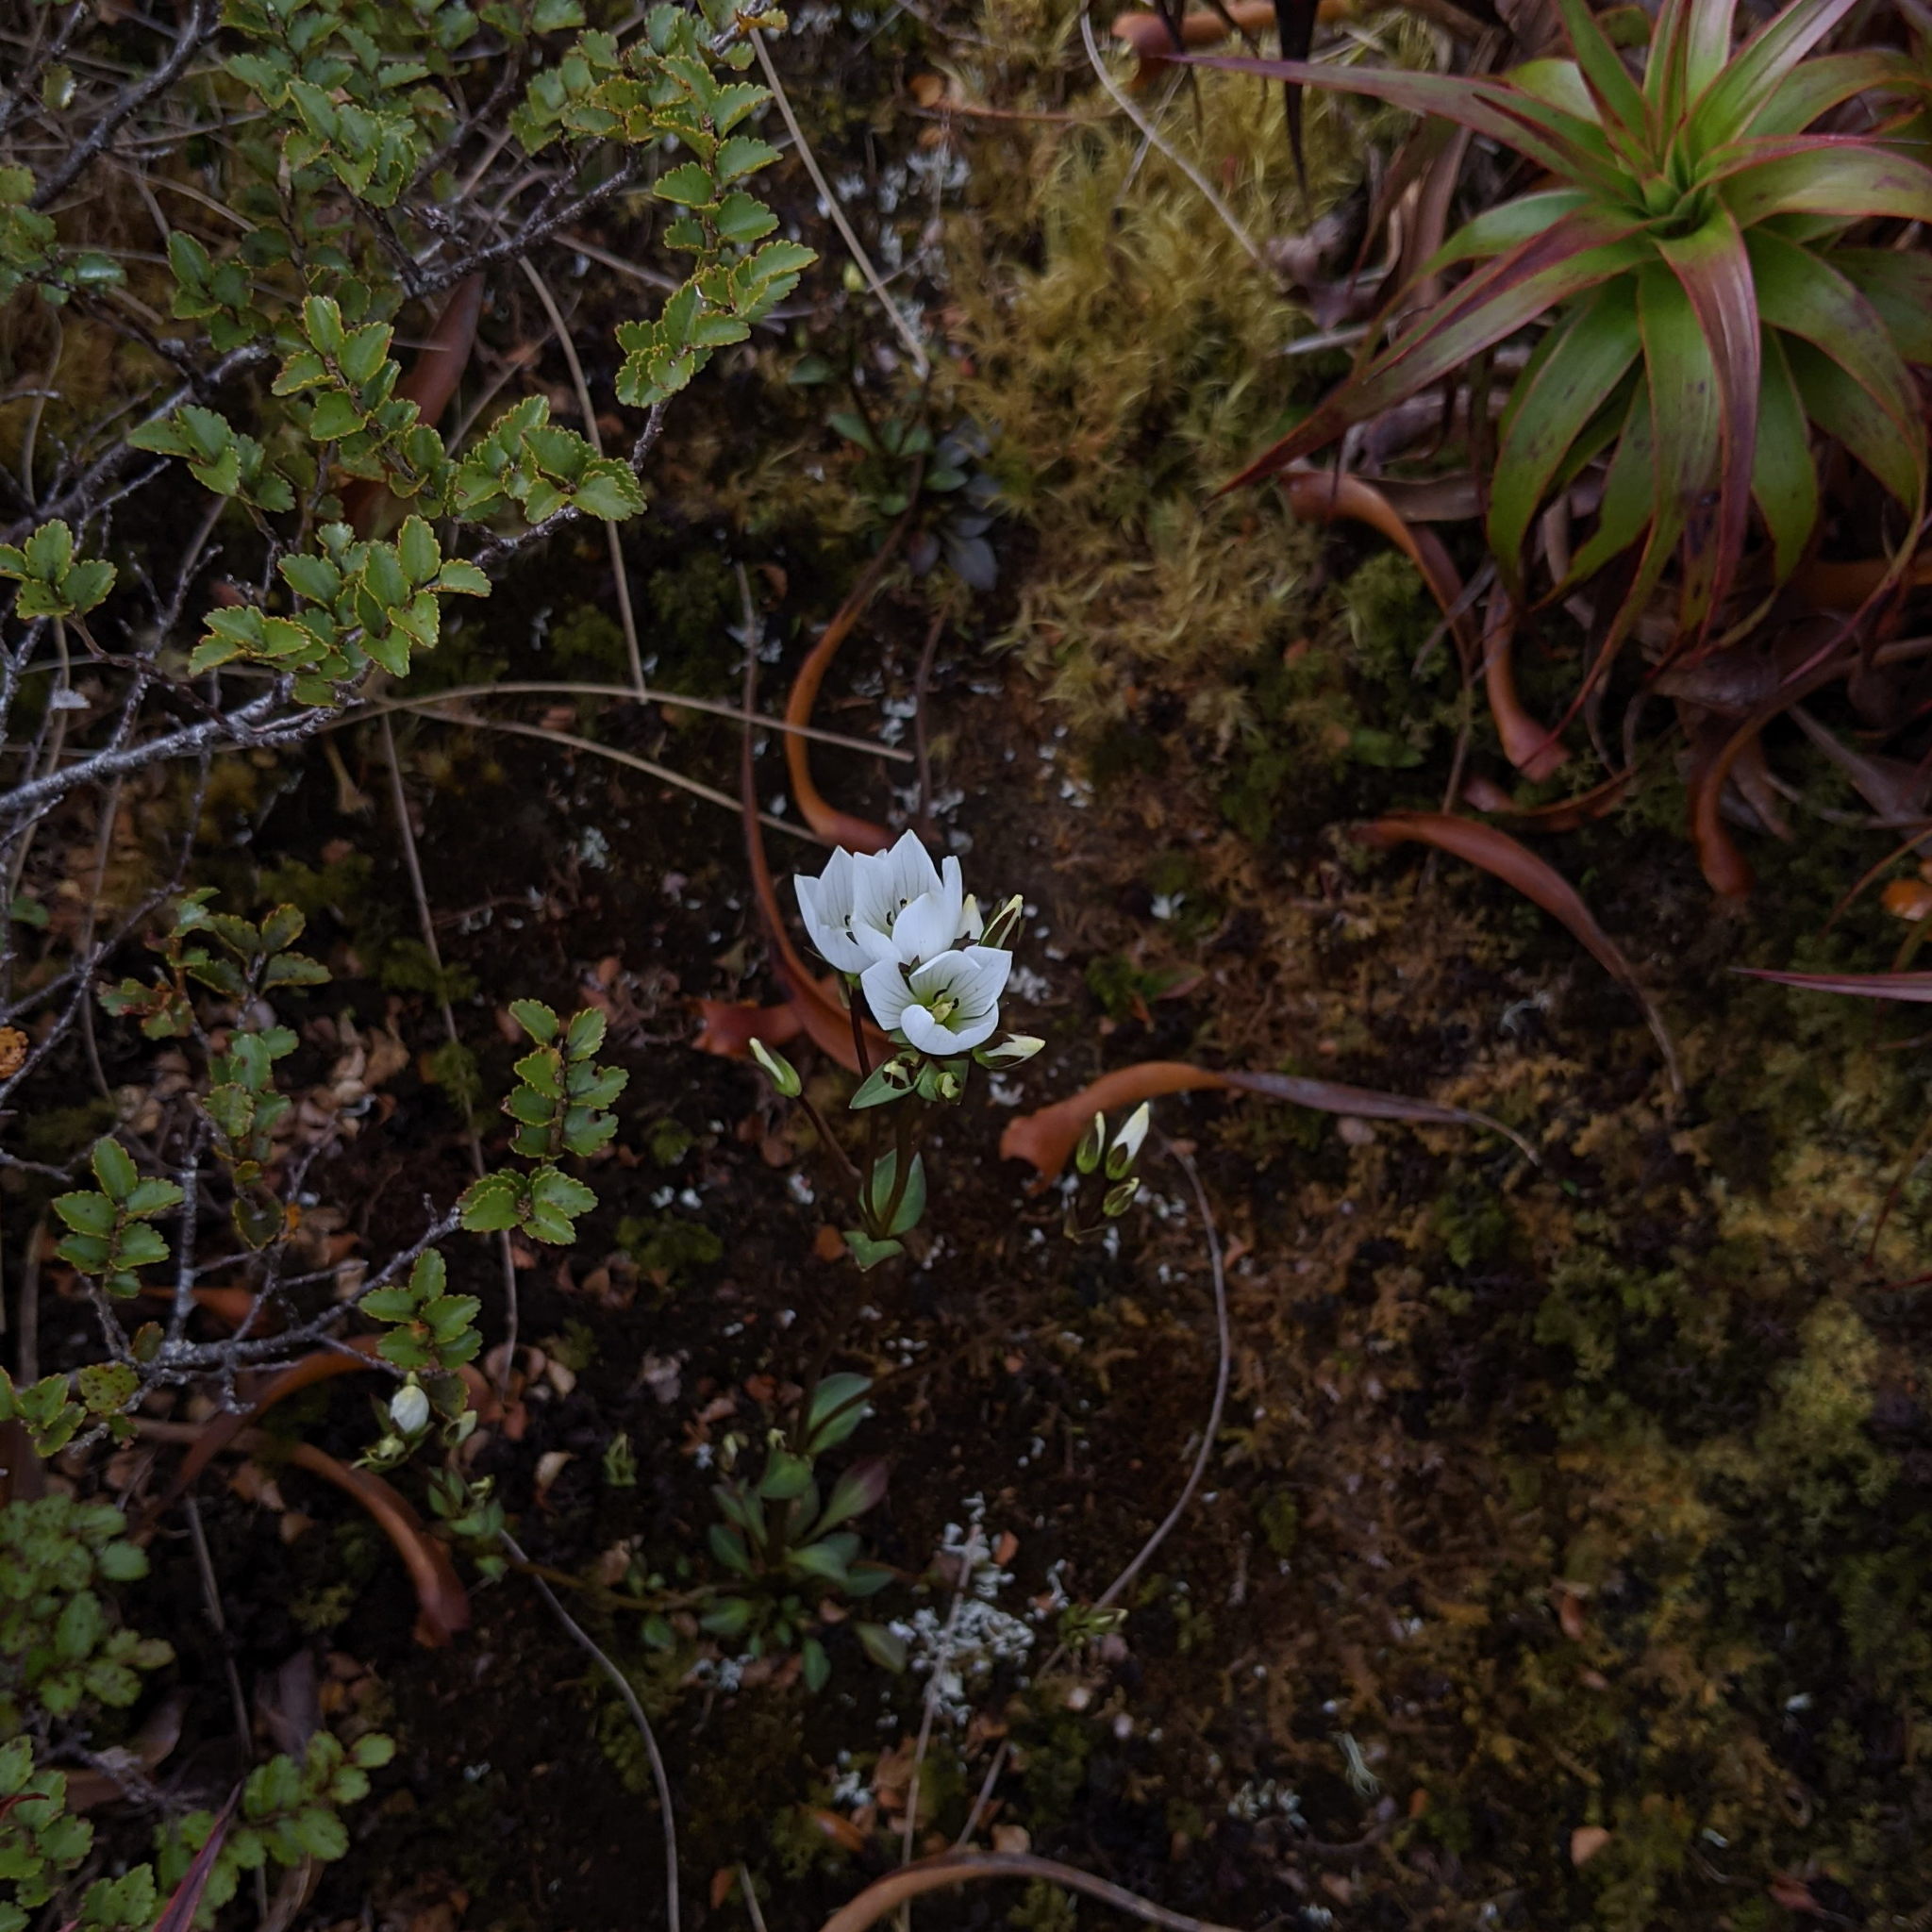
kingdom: Plantae
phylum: Tracheophyta
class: Magnoliopsida
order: Gentianales
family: Gentianaceae
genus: Gentianella
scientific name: Gentianella montana
